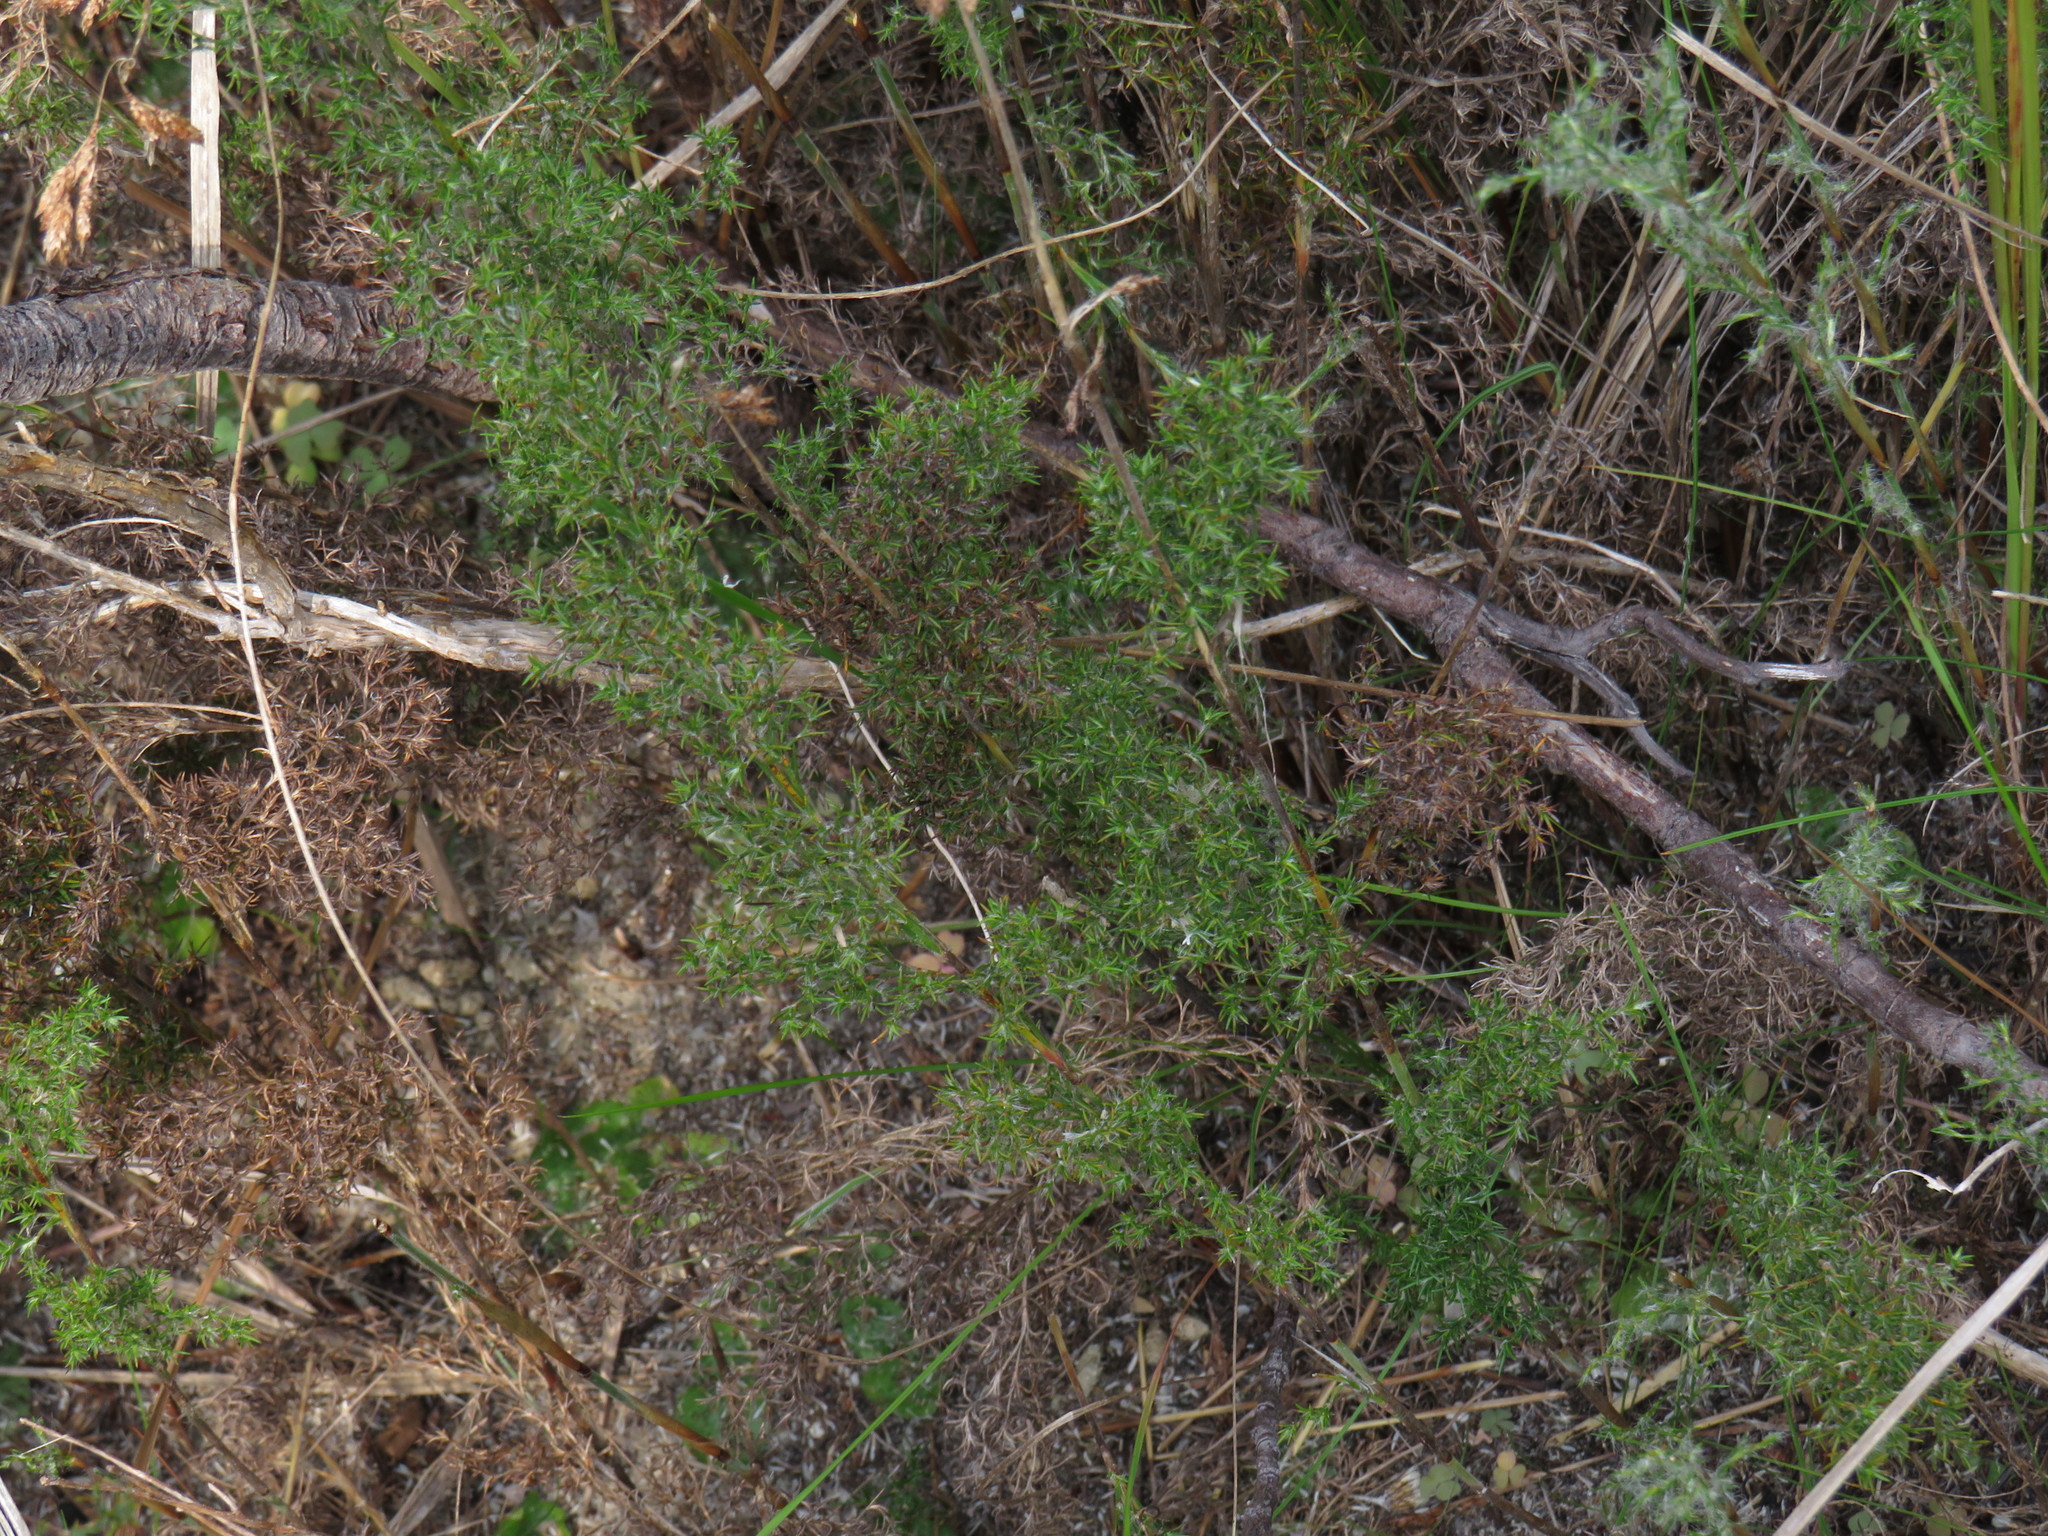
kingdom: Plantae
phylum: Tracheophyta
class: Liliopsida
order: Poales
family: Restionaceae
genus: Thamnochortus
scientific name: Thamnochortus fruticosus
